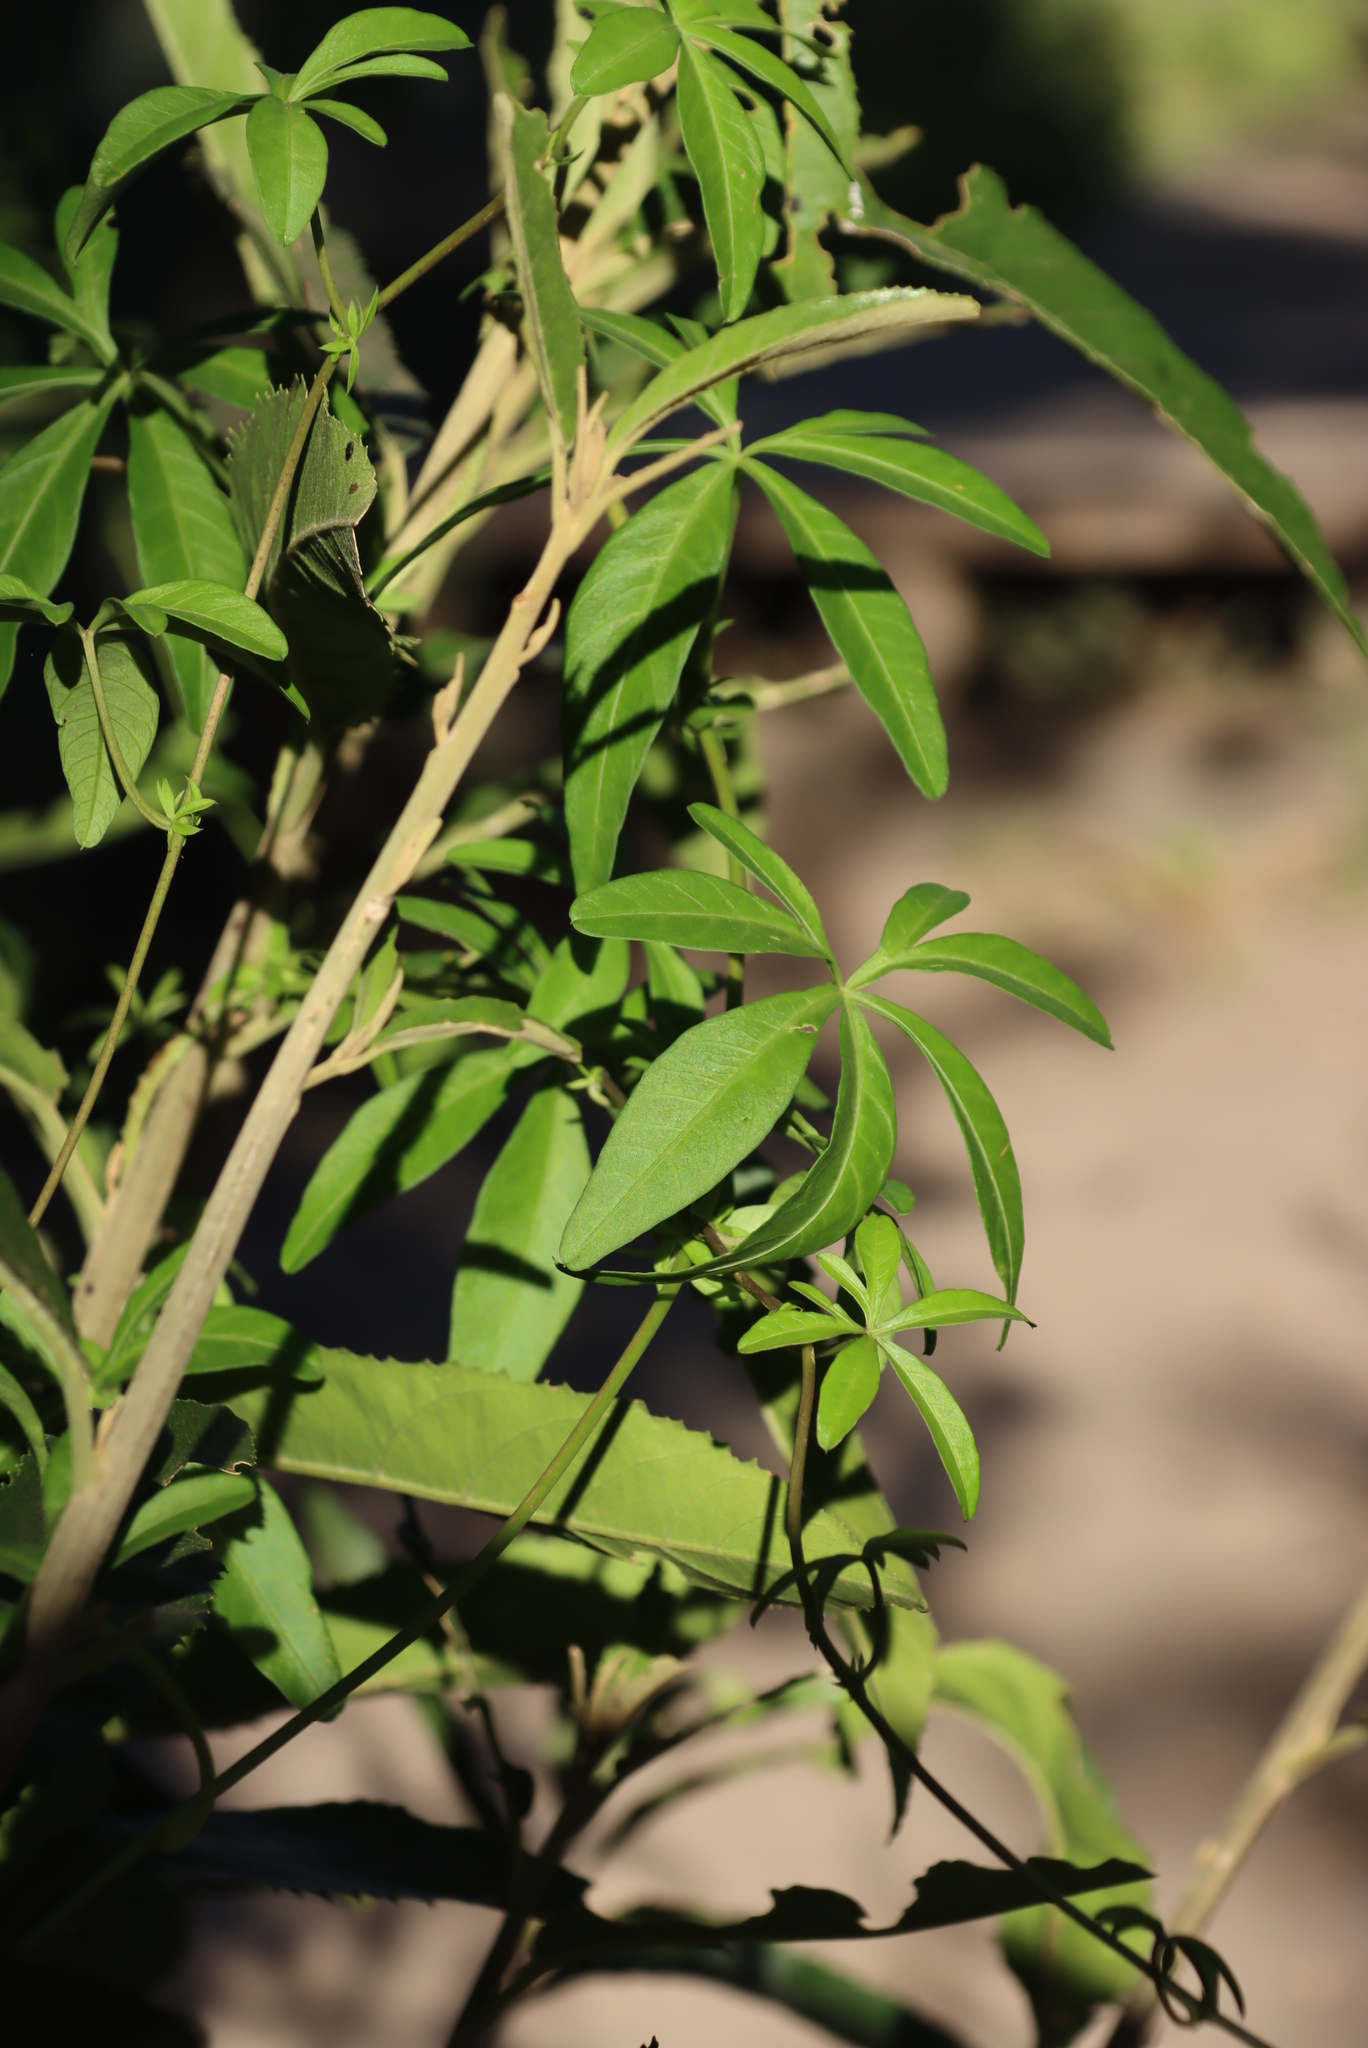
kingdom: Plantae
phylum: Tracheophyta
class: Magnoliopsida
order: Solanales
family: Convolvulaceae
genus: Ipomoea
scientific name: Ipomoea cairica
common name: Mile a minute vine
